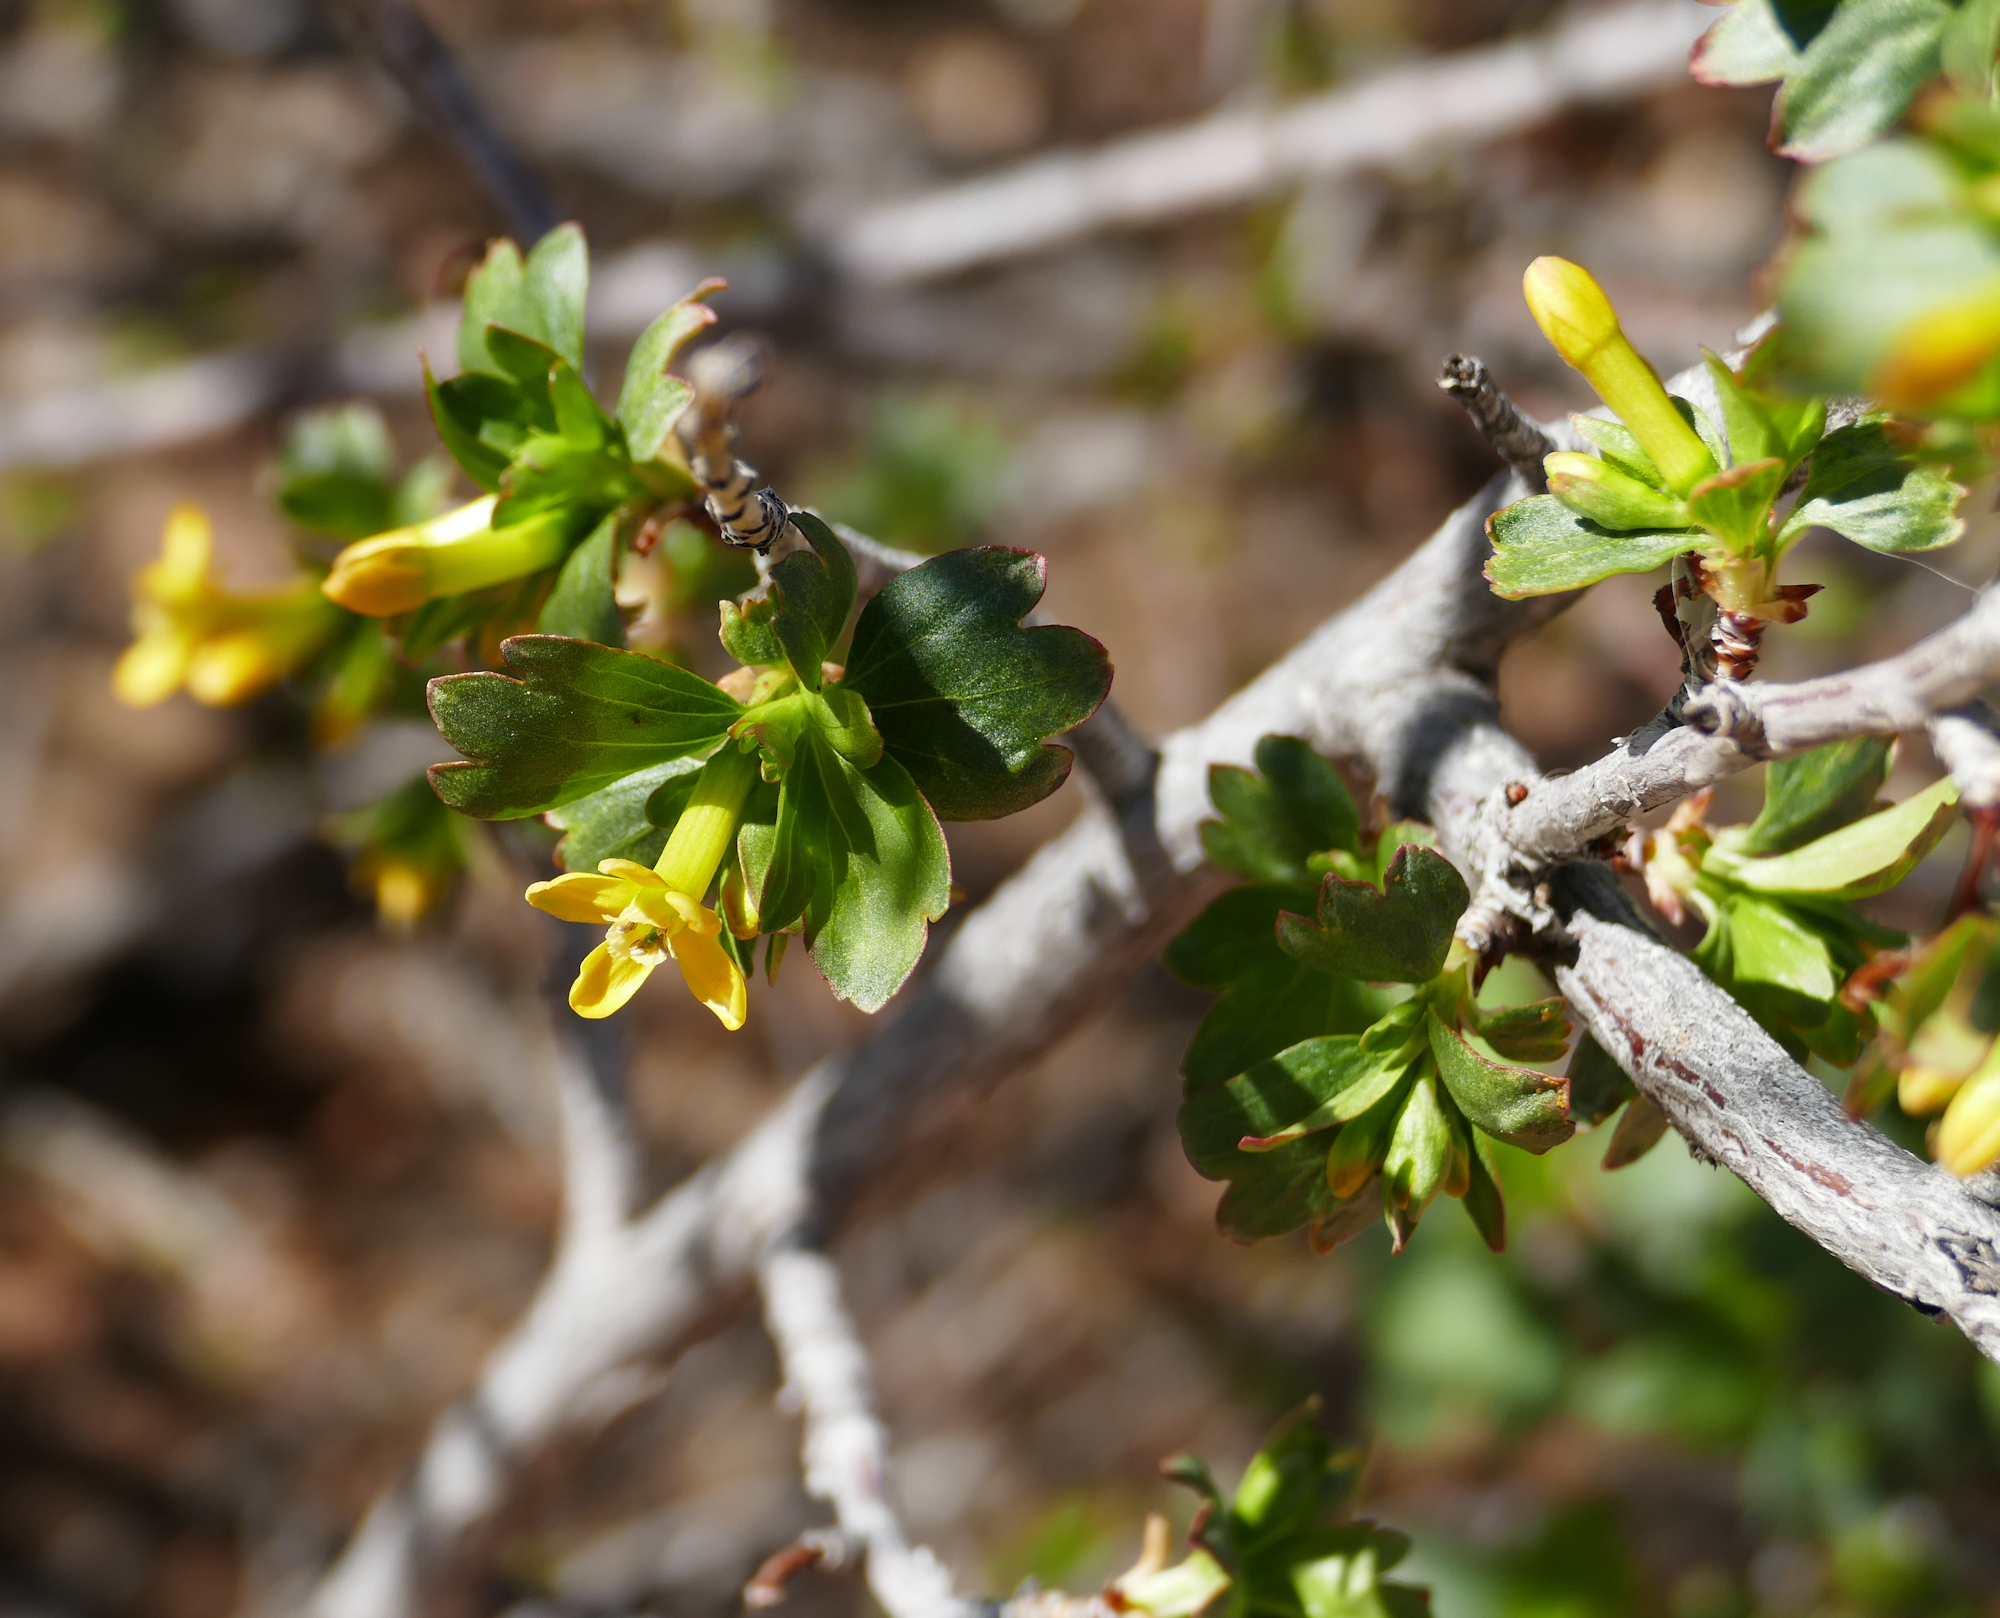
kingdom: Plantae
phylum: Tracheophyta
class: Magnoliopsida
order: Saxifragales
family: Grossulariaceae
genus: Ribes
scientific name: Ribes aureum
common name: Golden currant
